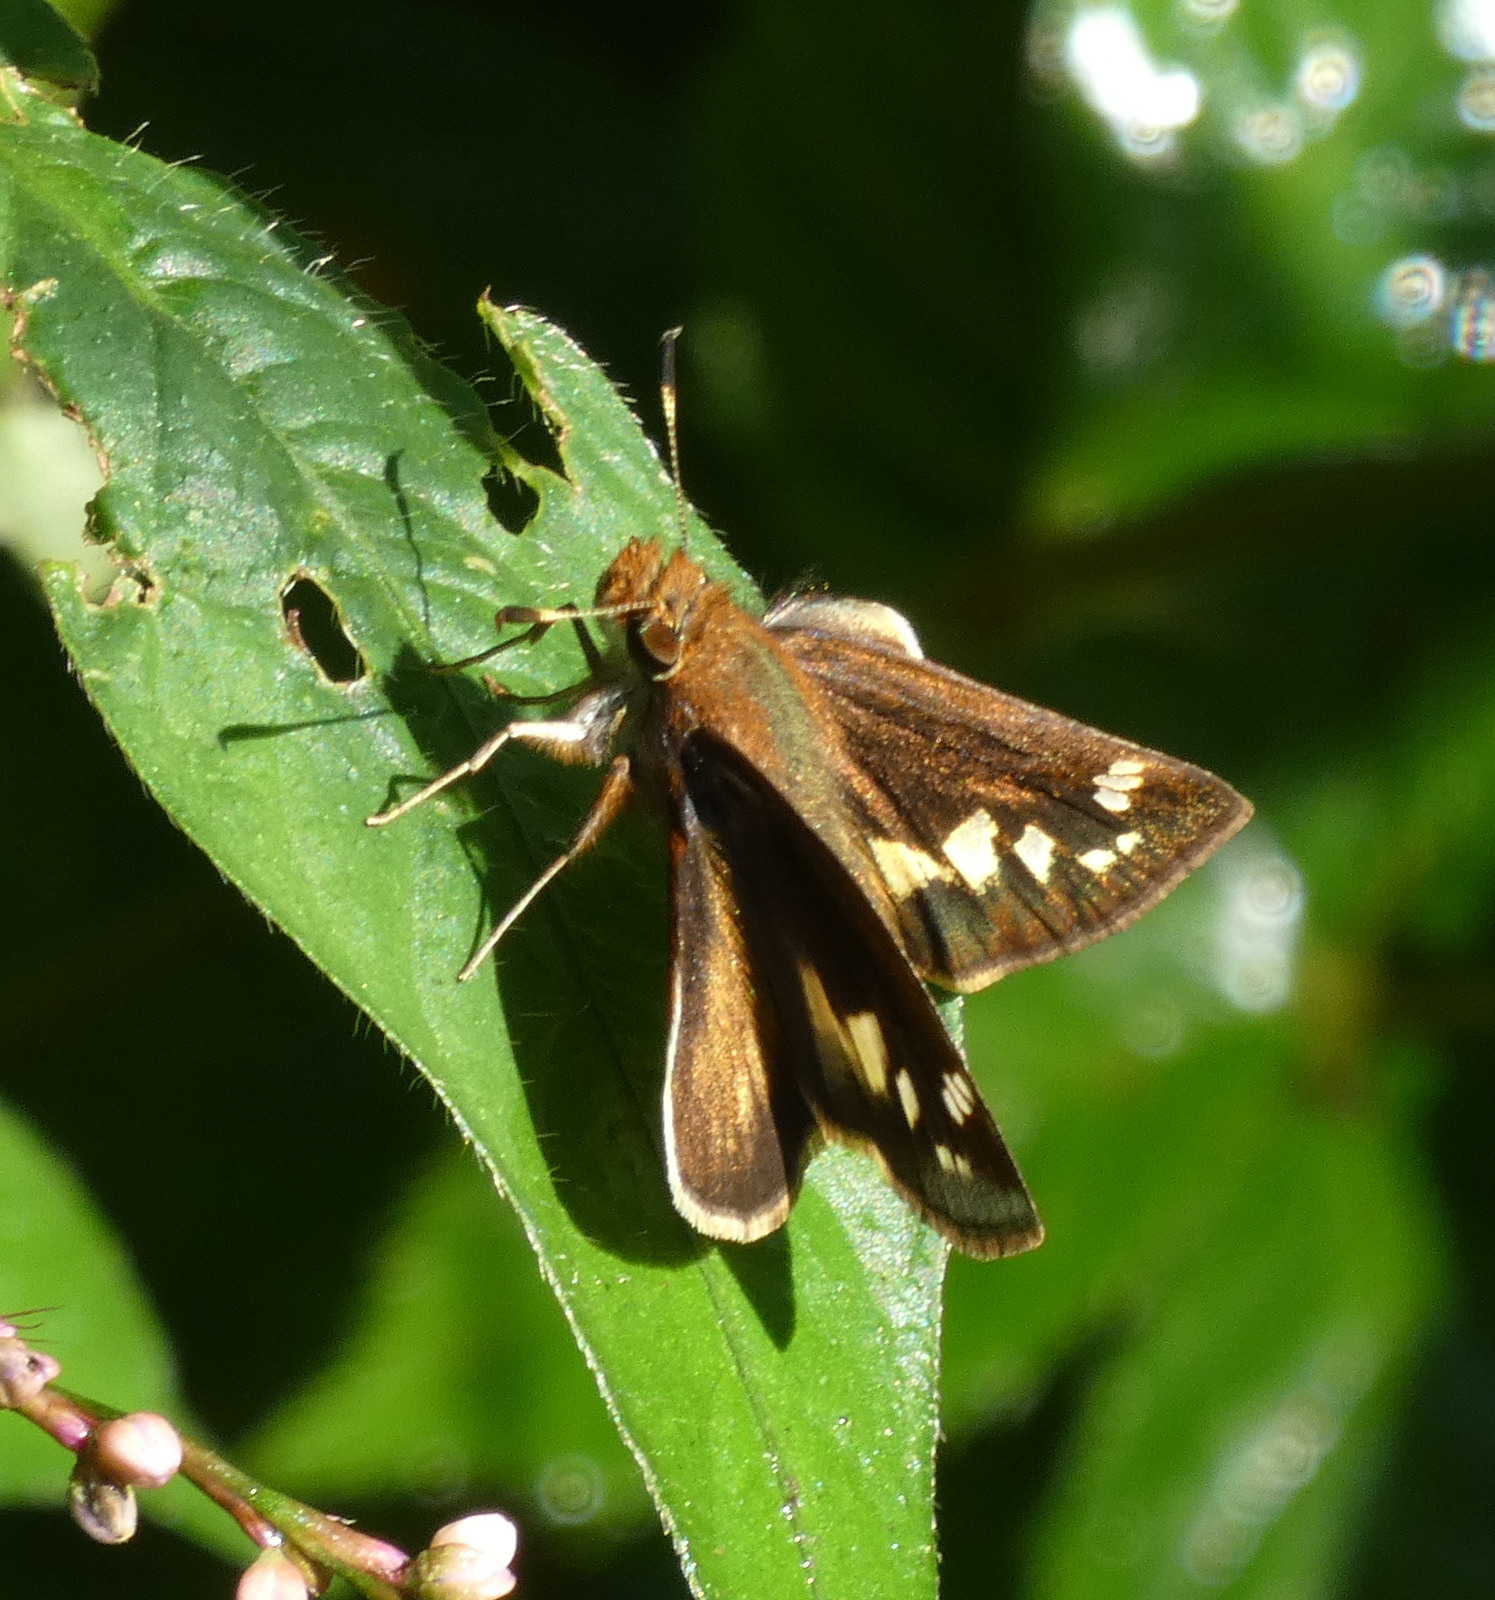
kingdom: Animalia
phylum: Arthropoda
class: Insecta
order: Lepidoptera
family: Hesperiidae
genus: Lon
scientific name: Lon zabulon
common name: Zabulon skipper
